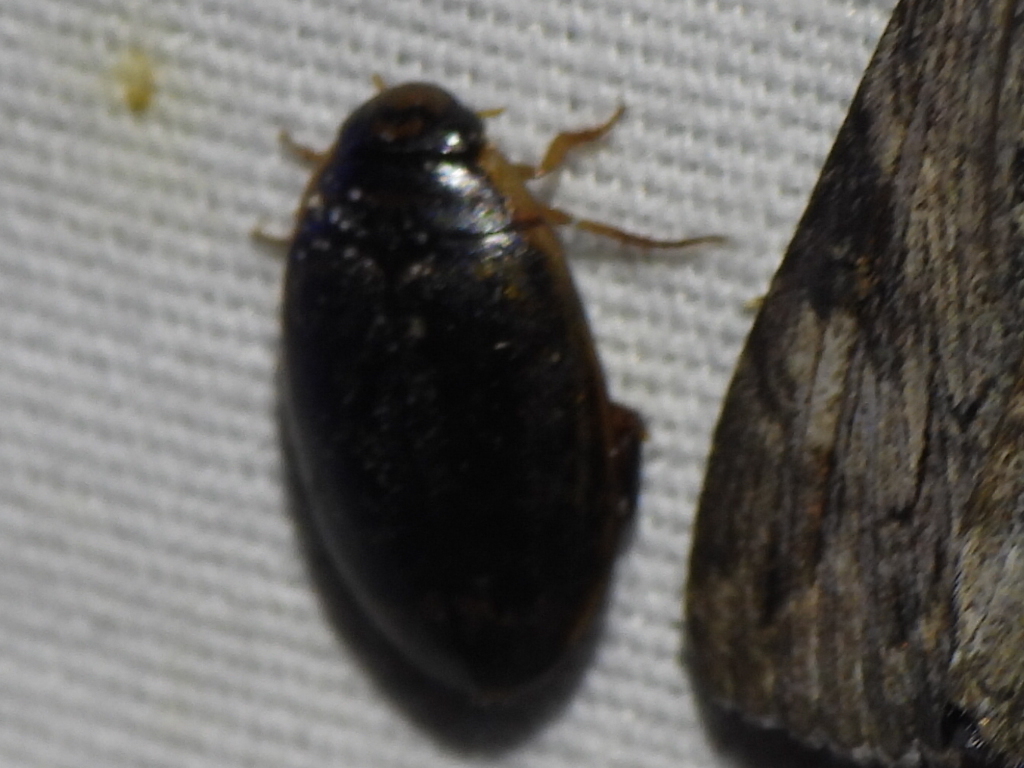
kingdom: Animalia
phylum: Arthropoda
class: Insecta
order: Coleoptera
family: Dytiscidae
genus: Thermonectus
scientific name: Thermonectus basillaris
